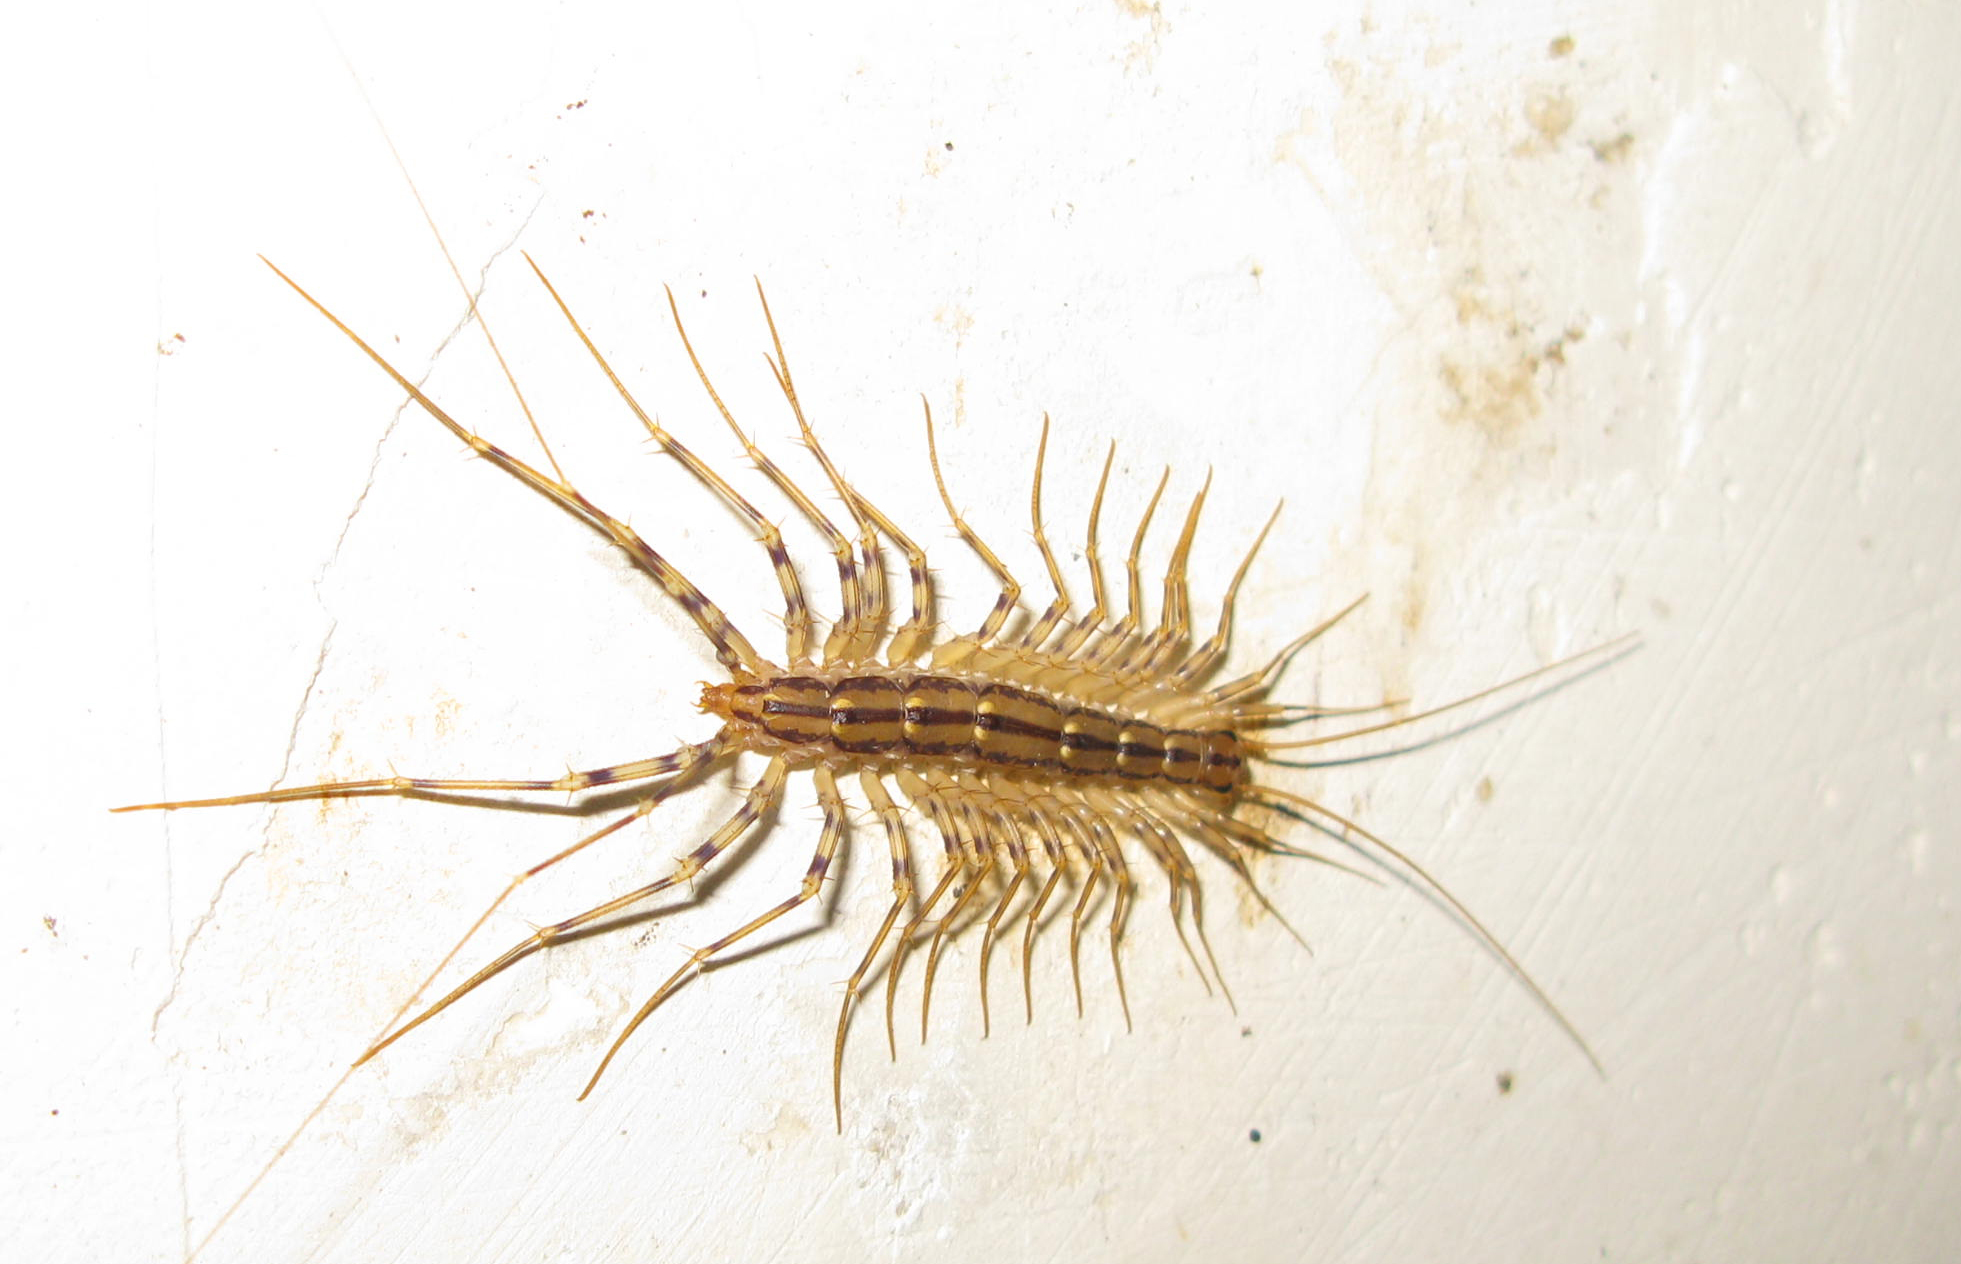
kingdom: Animalia
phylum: Arthropoda
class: Chilopoda
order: Scutigeromorpha
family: Scutigeridae
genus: Scutigera
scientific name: Scutigera coleoptrata
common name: House centipede
